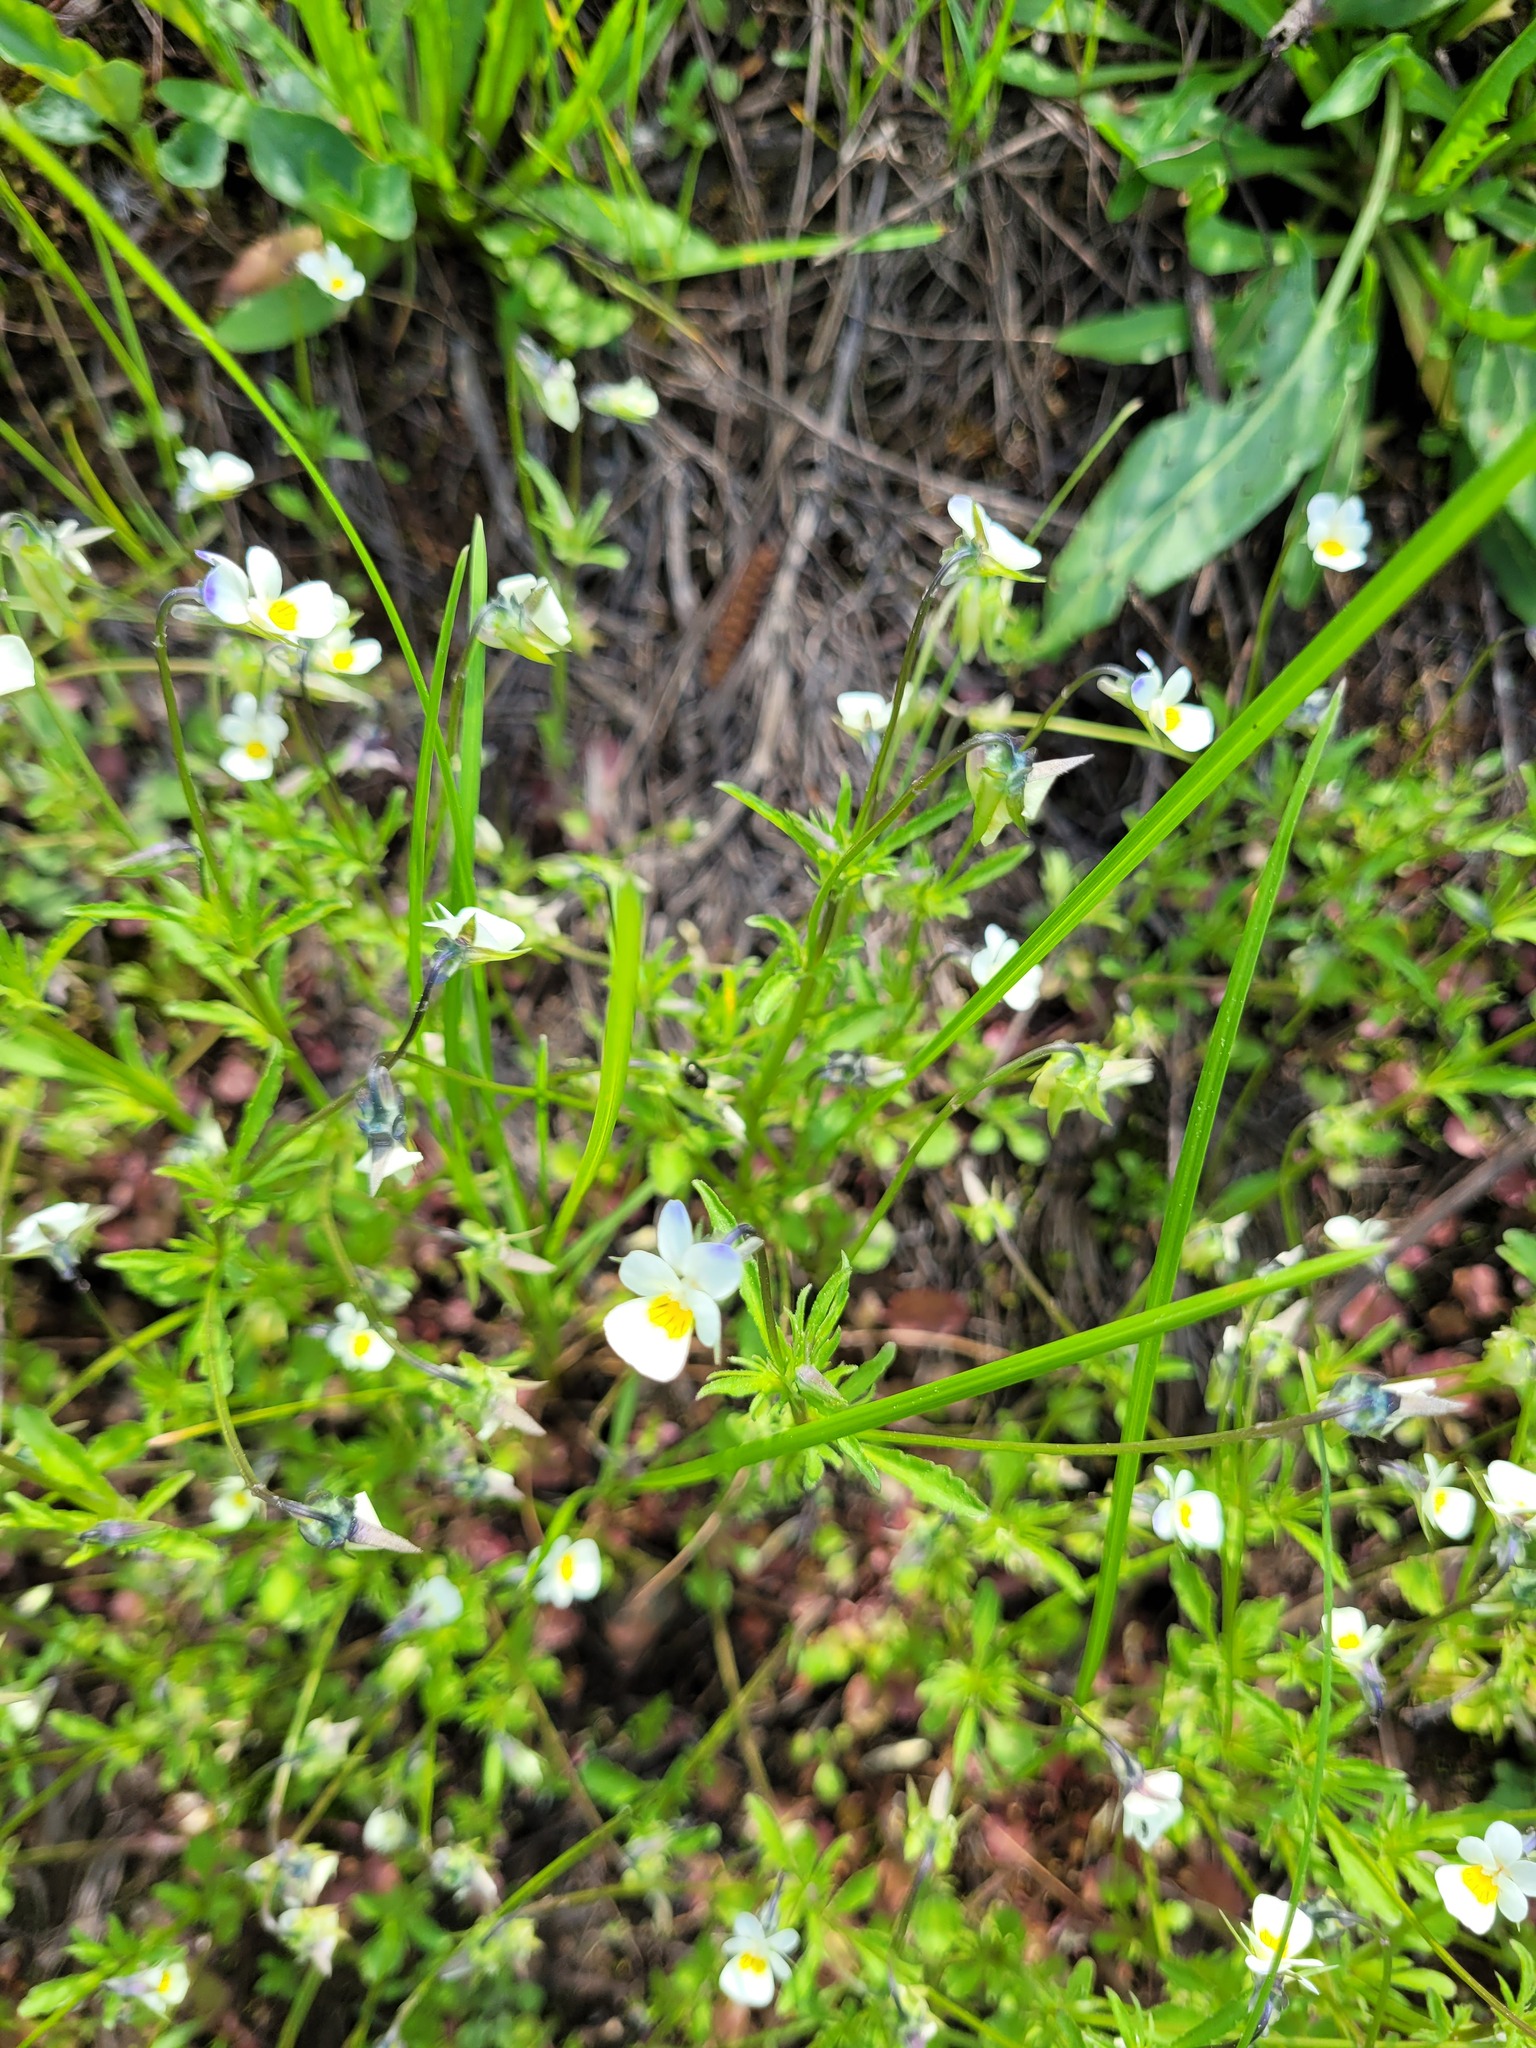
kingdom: Plantae
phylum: Tracheophyta
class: Magnoliopsida
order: Malpighiales
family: Violaceae
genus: Viola
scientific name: Viola arvensis
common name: Field pansy
